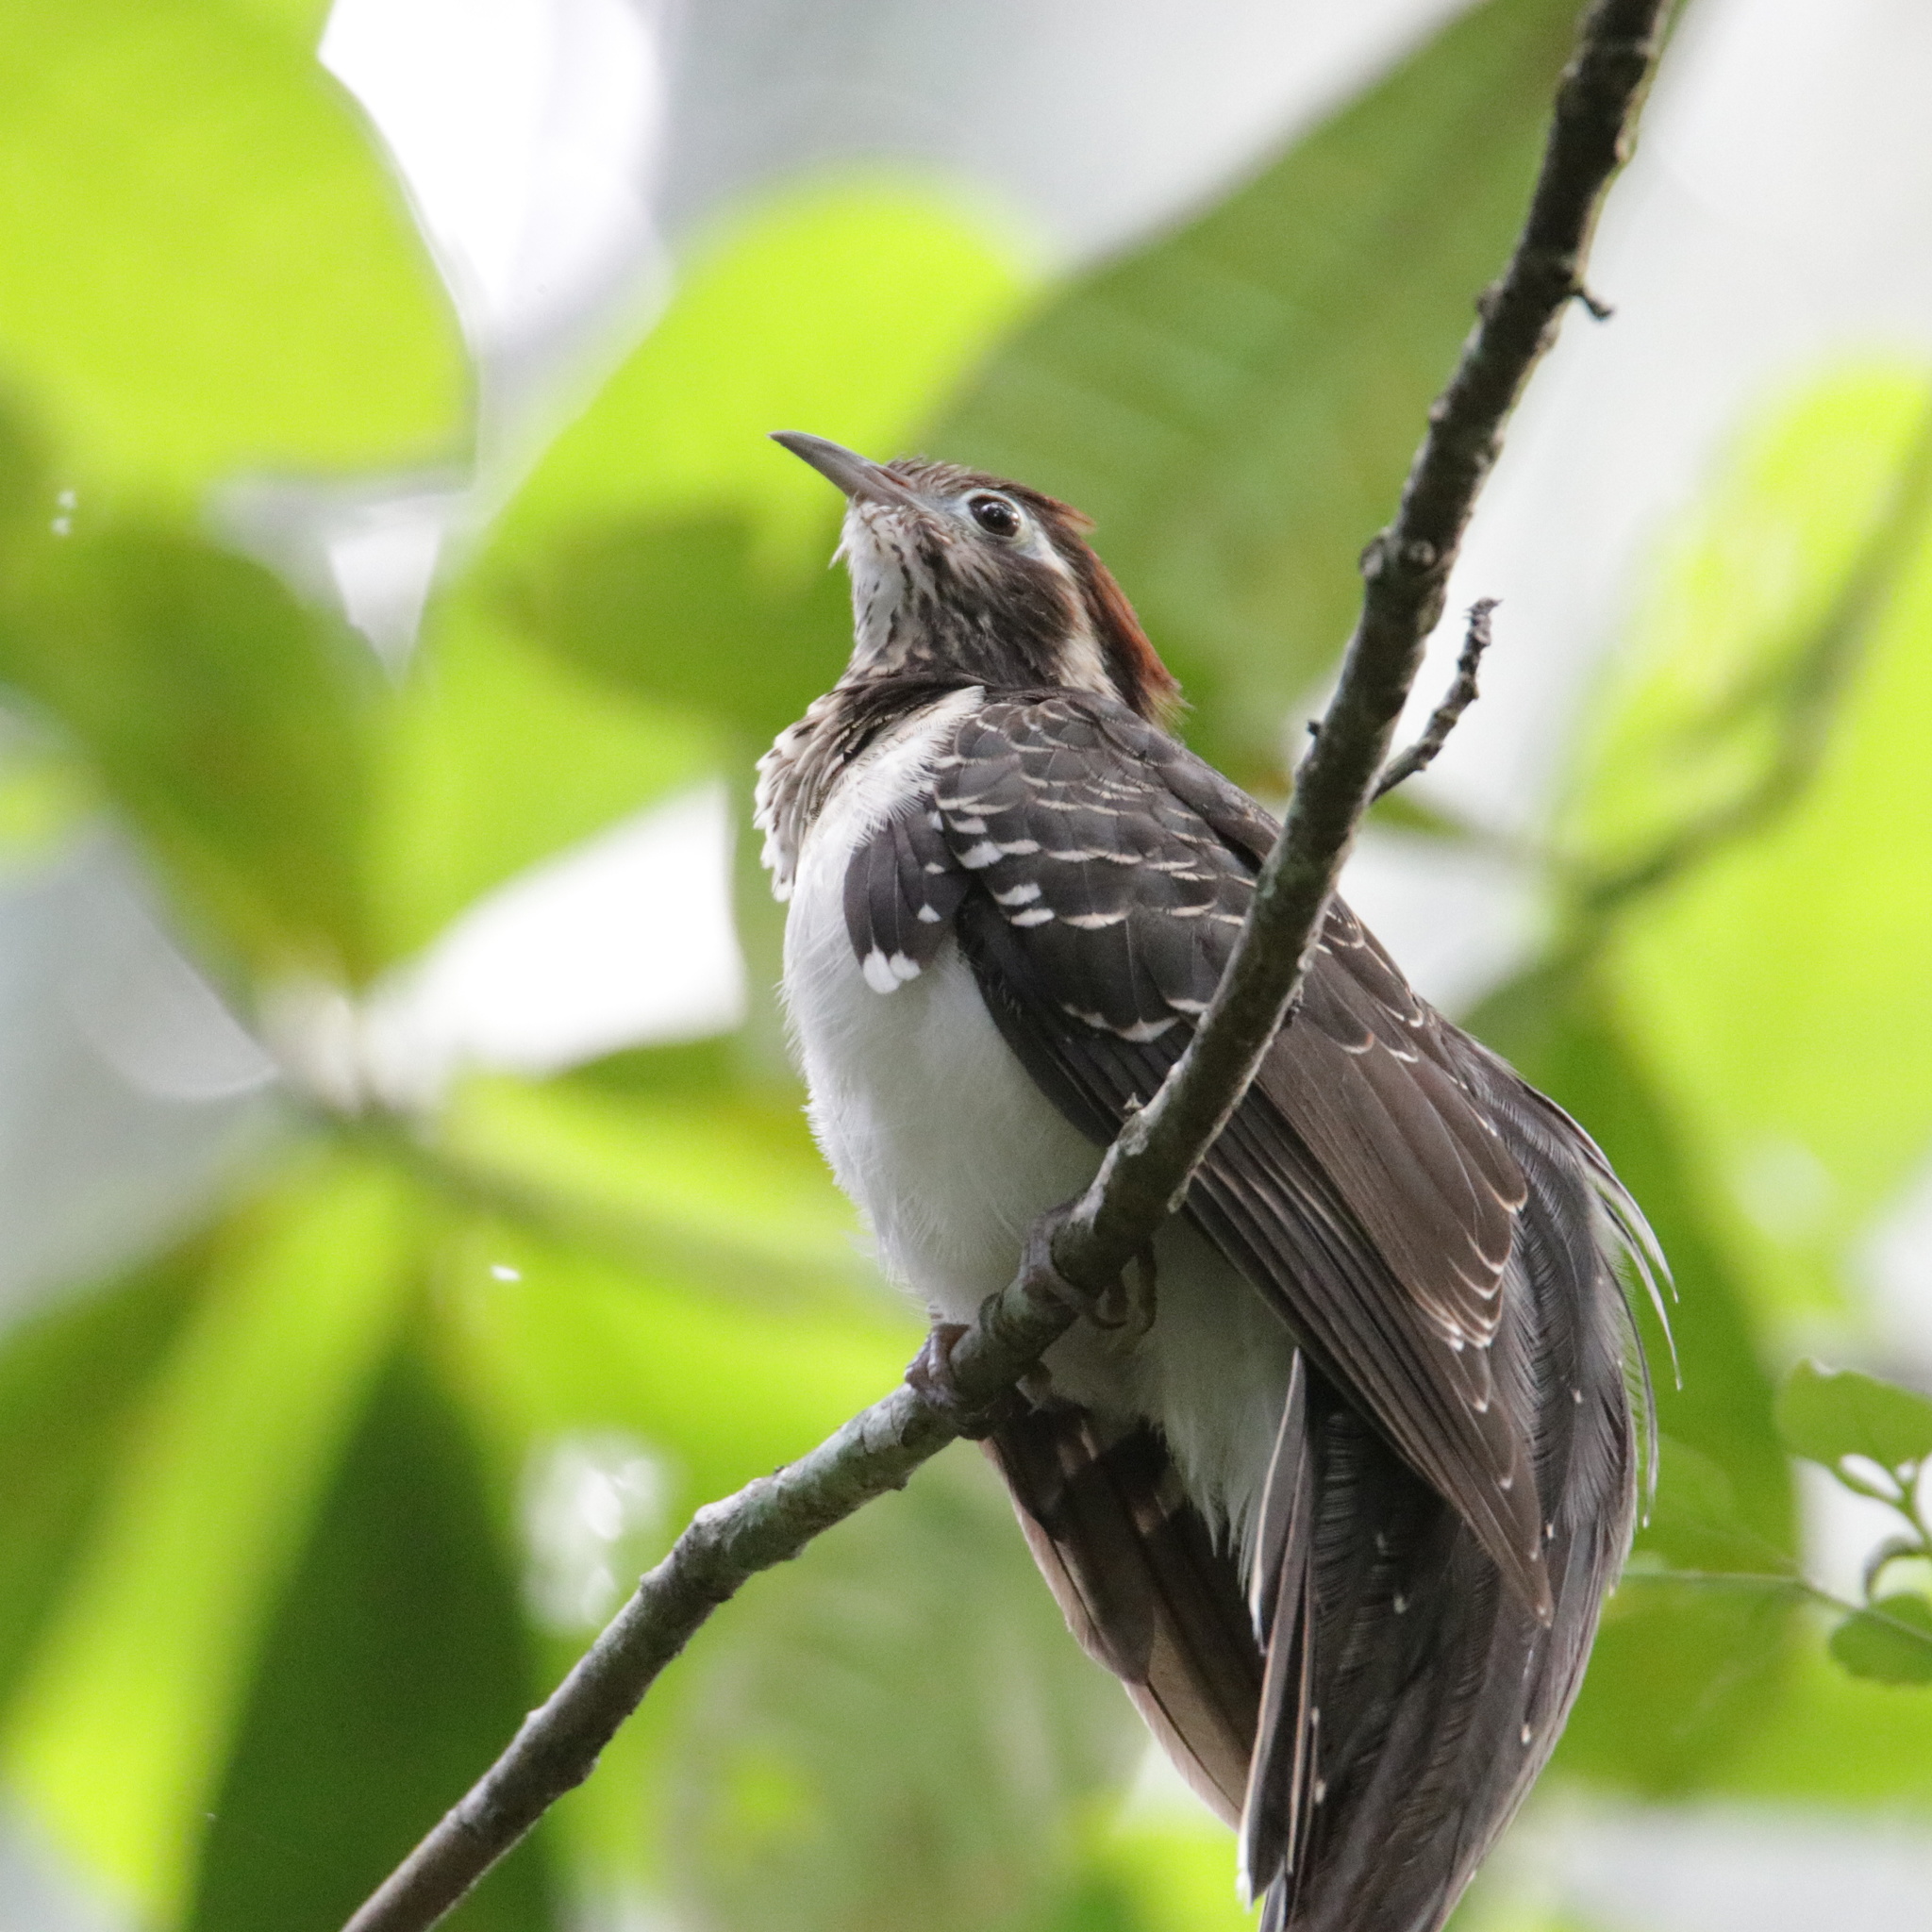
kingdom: Animalia
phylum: Chordata
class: Aves
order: Cuculiformes
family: Cuculidae
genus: Dromococcyx
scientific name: Dromococcyx phasianellus
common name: Pheasant cuckoo
